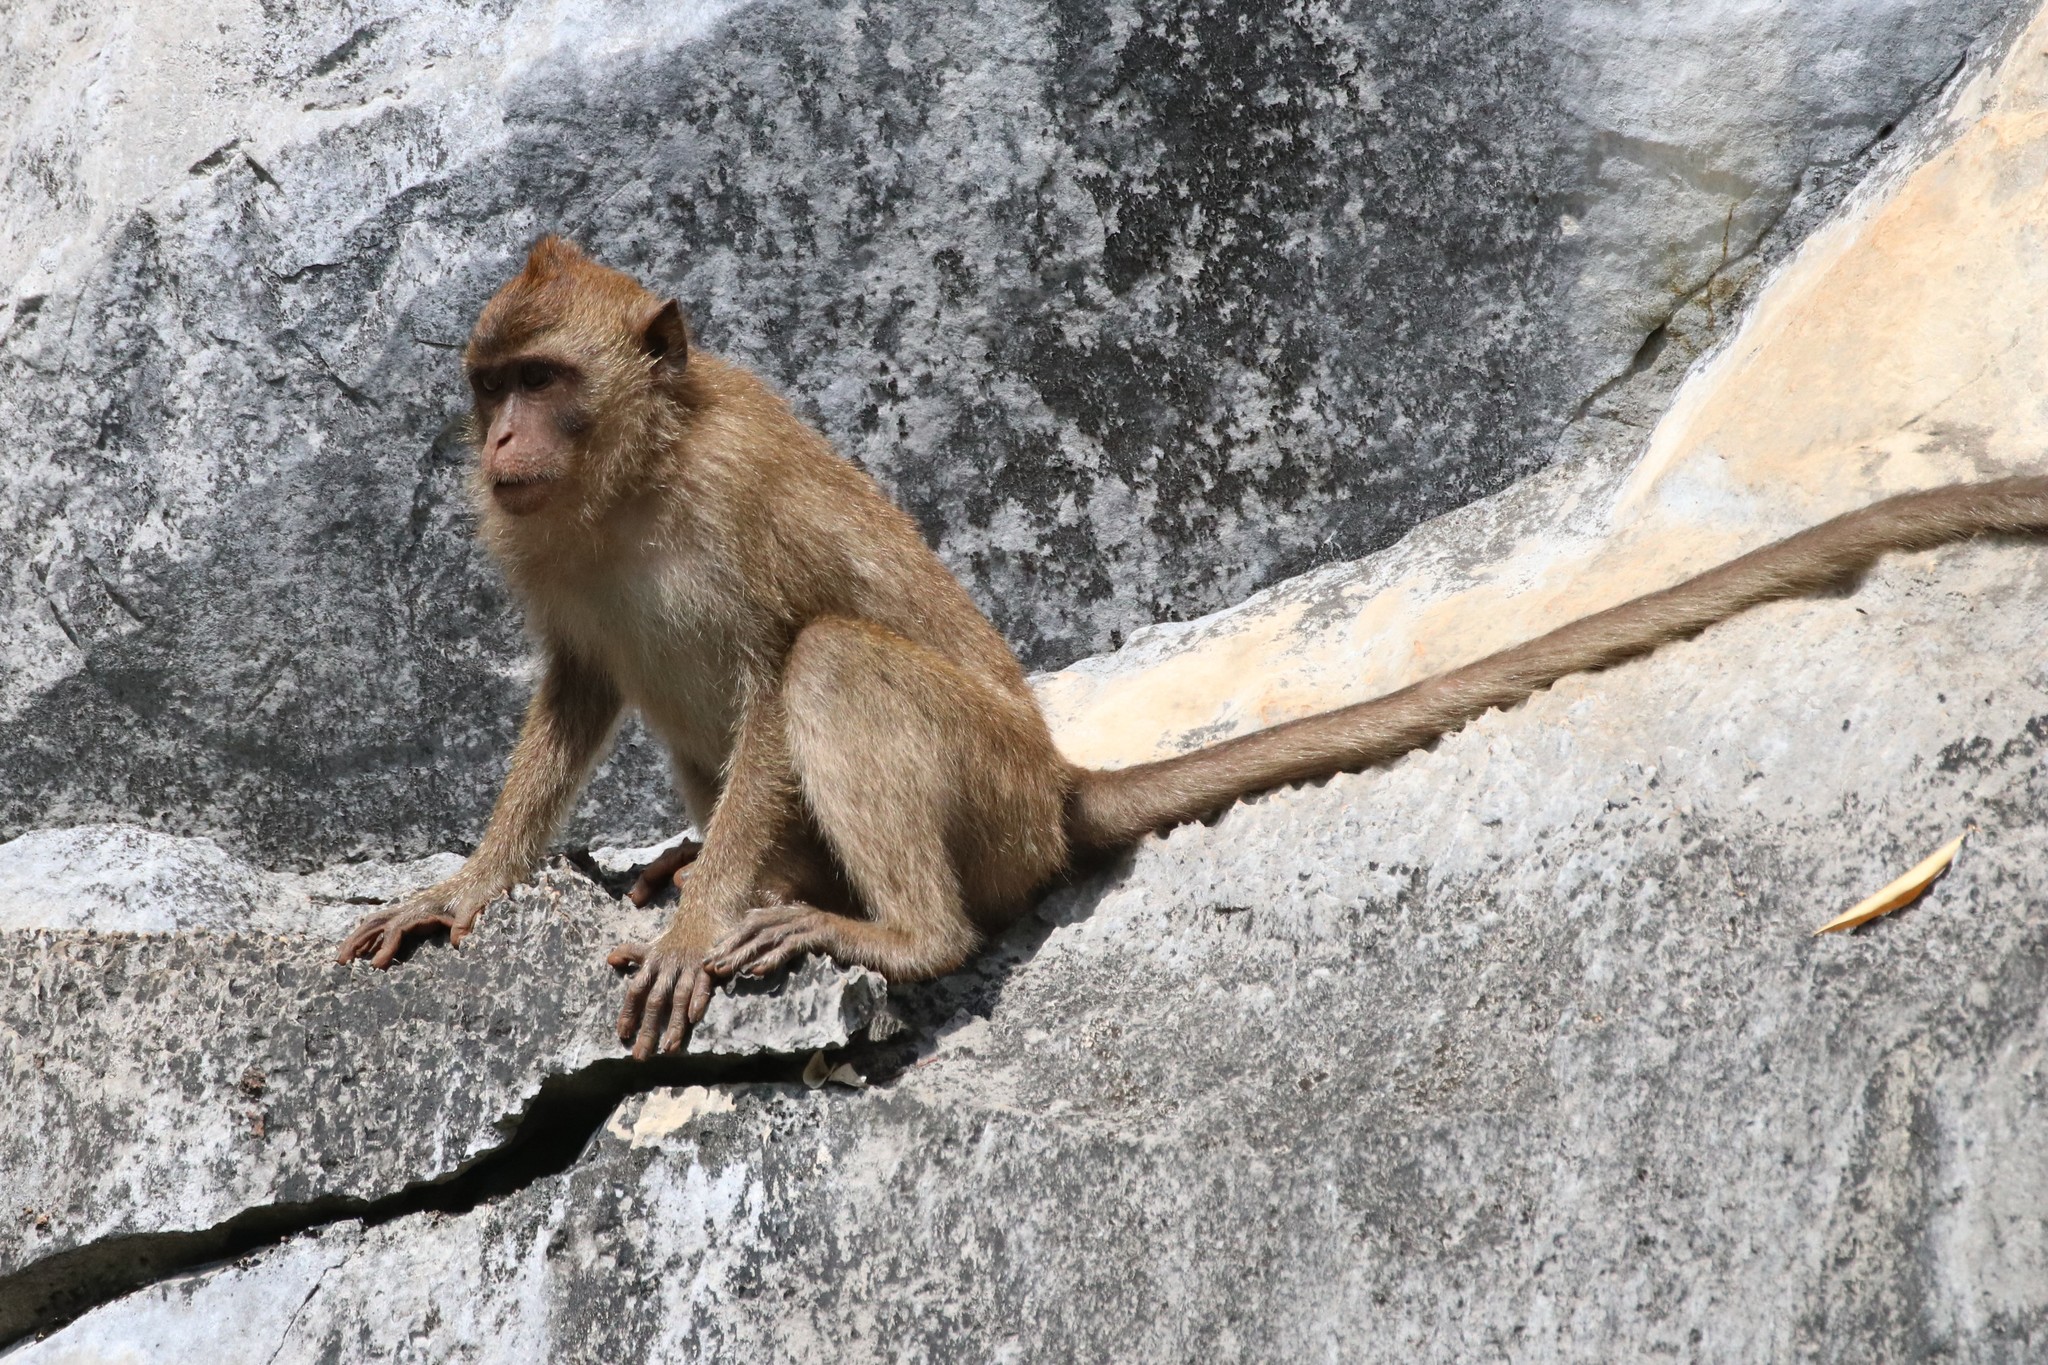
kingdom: Animalia
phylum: Chordata
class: Mammalia
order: Primates
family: Cercopithecidae
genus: Macaca
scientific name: Macaca fascicularis
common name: Crab-eating macaque
